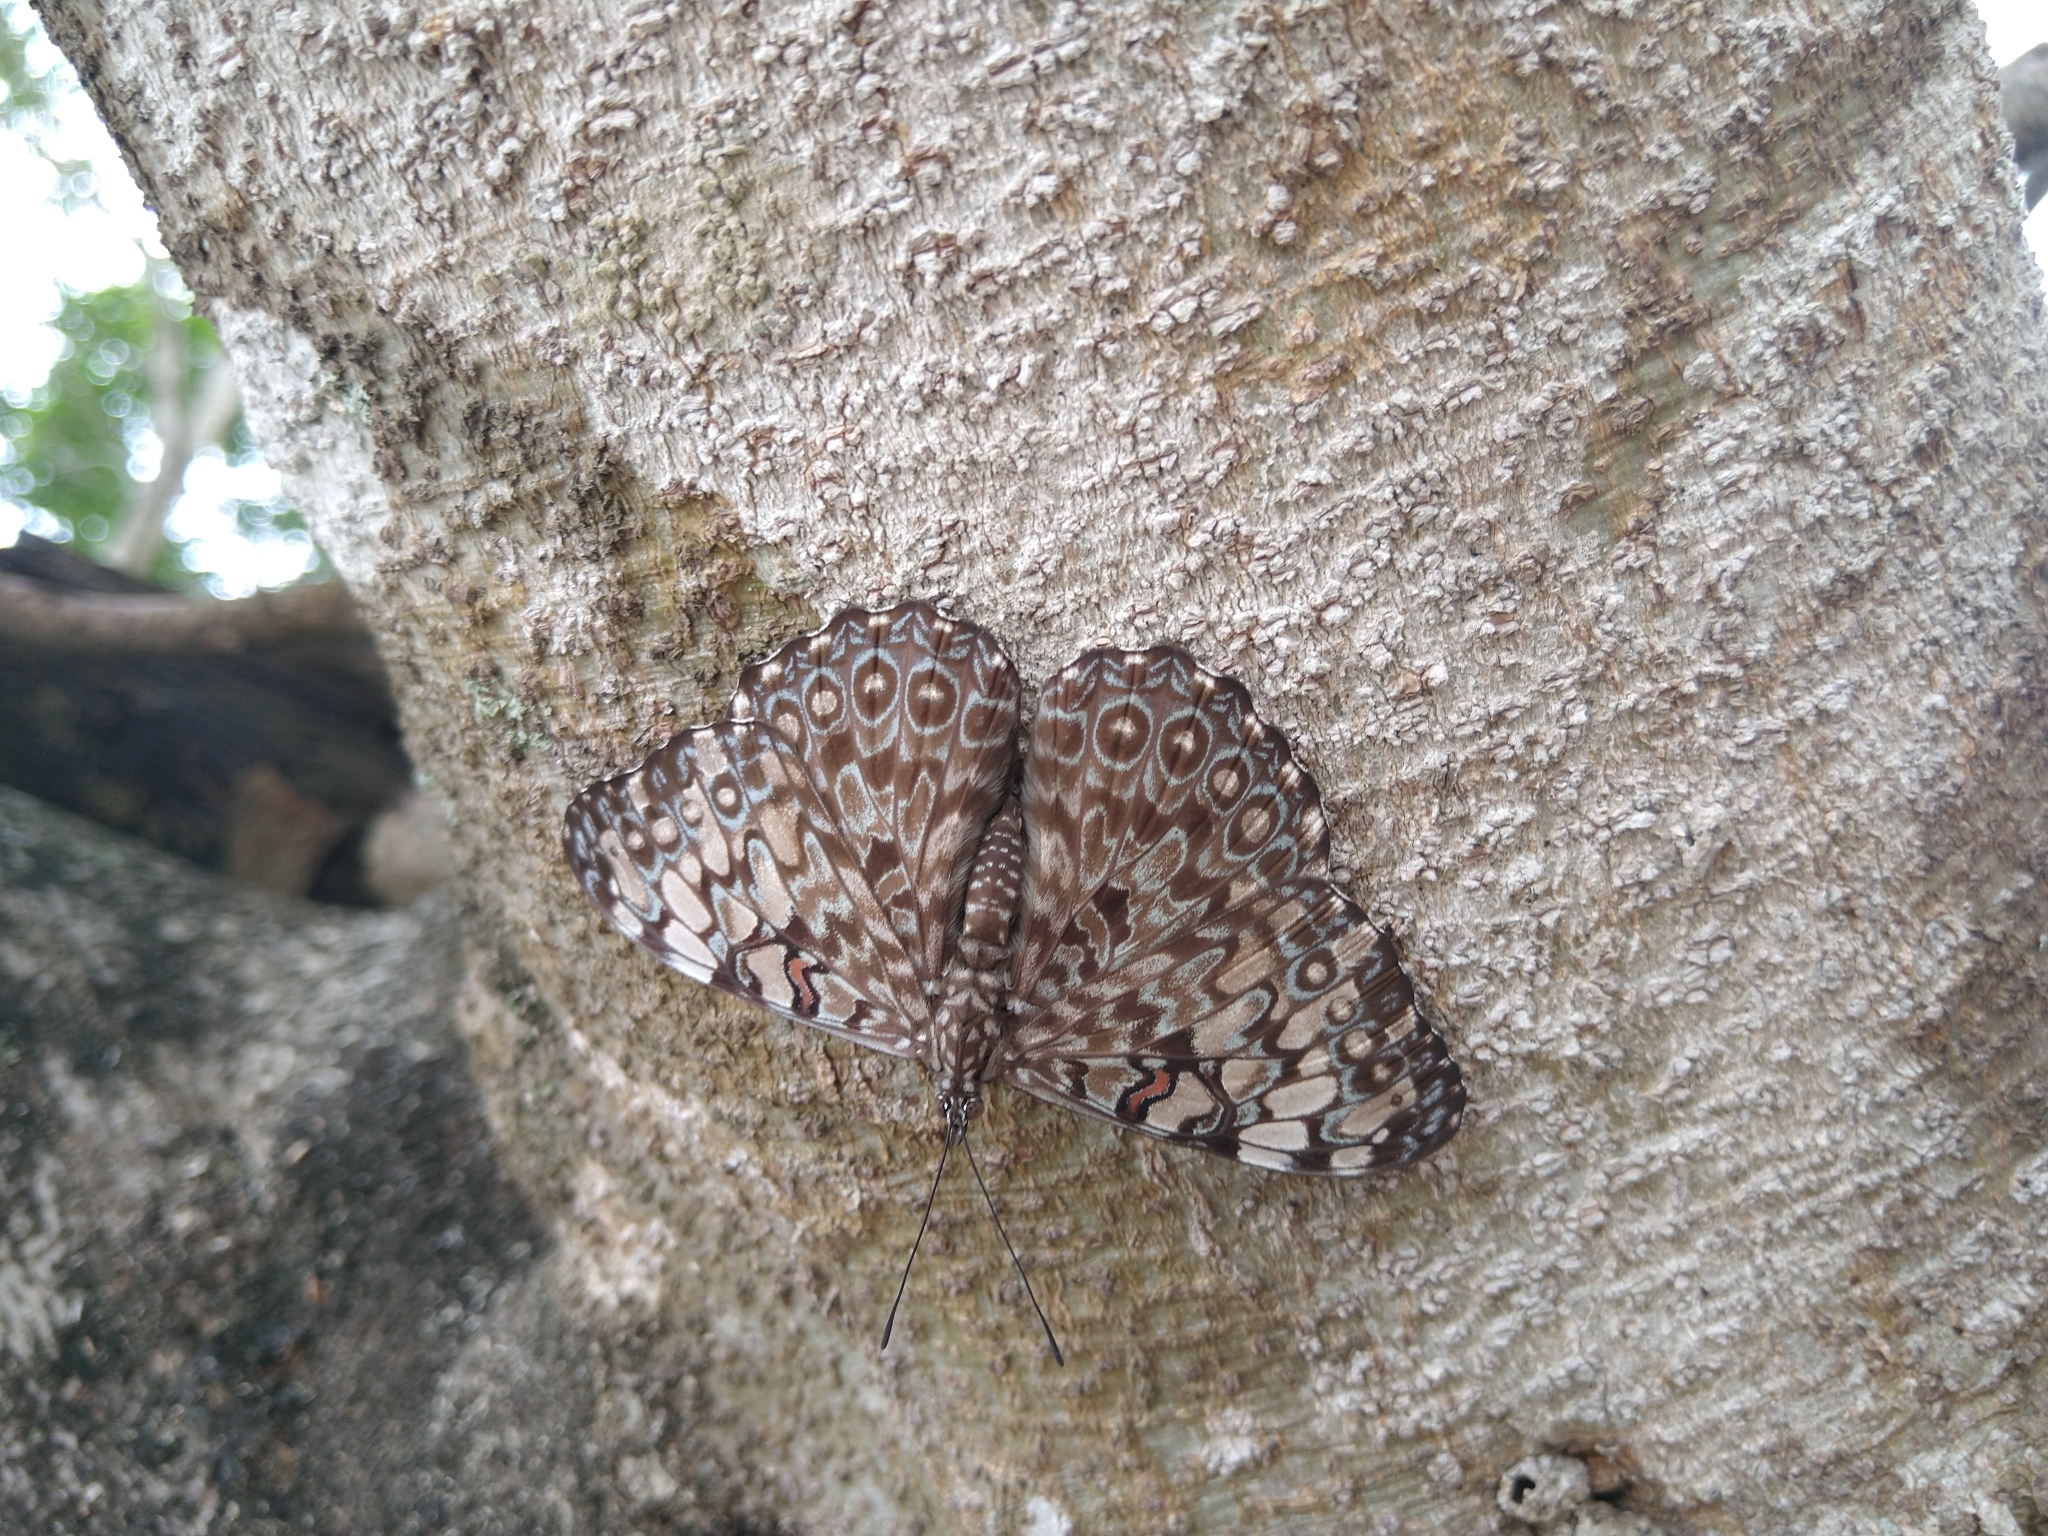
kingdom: Animalia
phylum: Arthropoda
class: Insecta
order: Lepidoptera
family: Nymphalidae
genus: Hamadryas
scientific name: Hamadryas feronia
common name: Variable cracker
